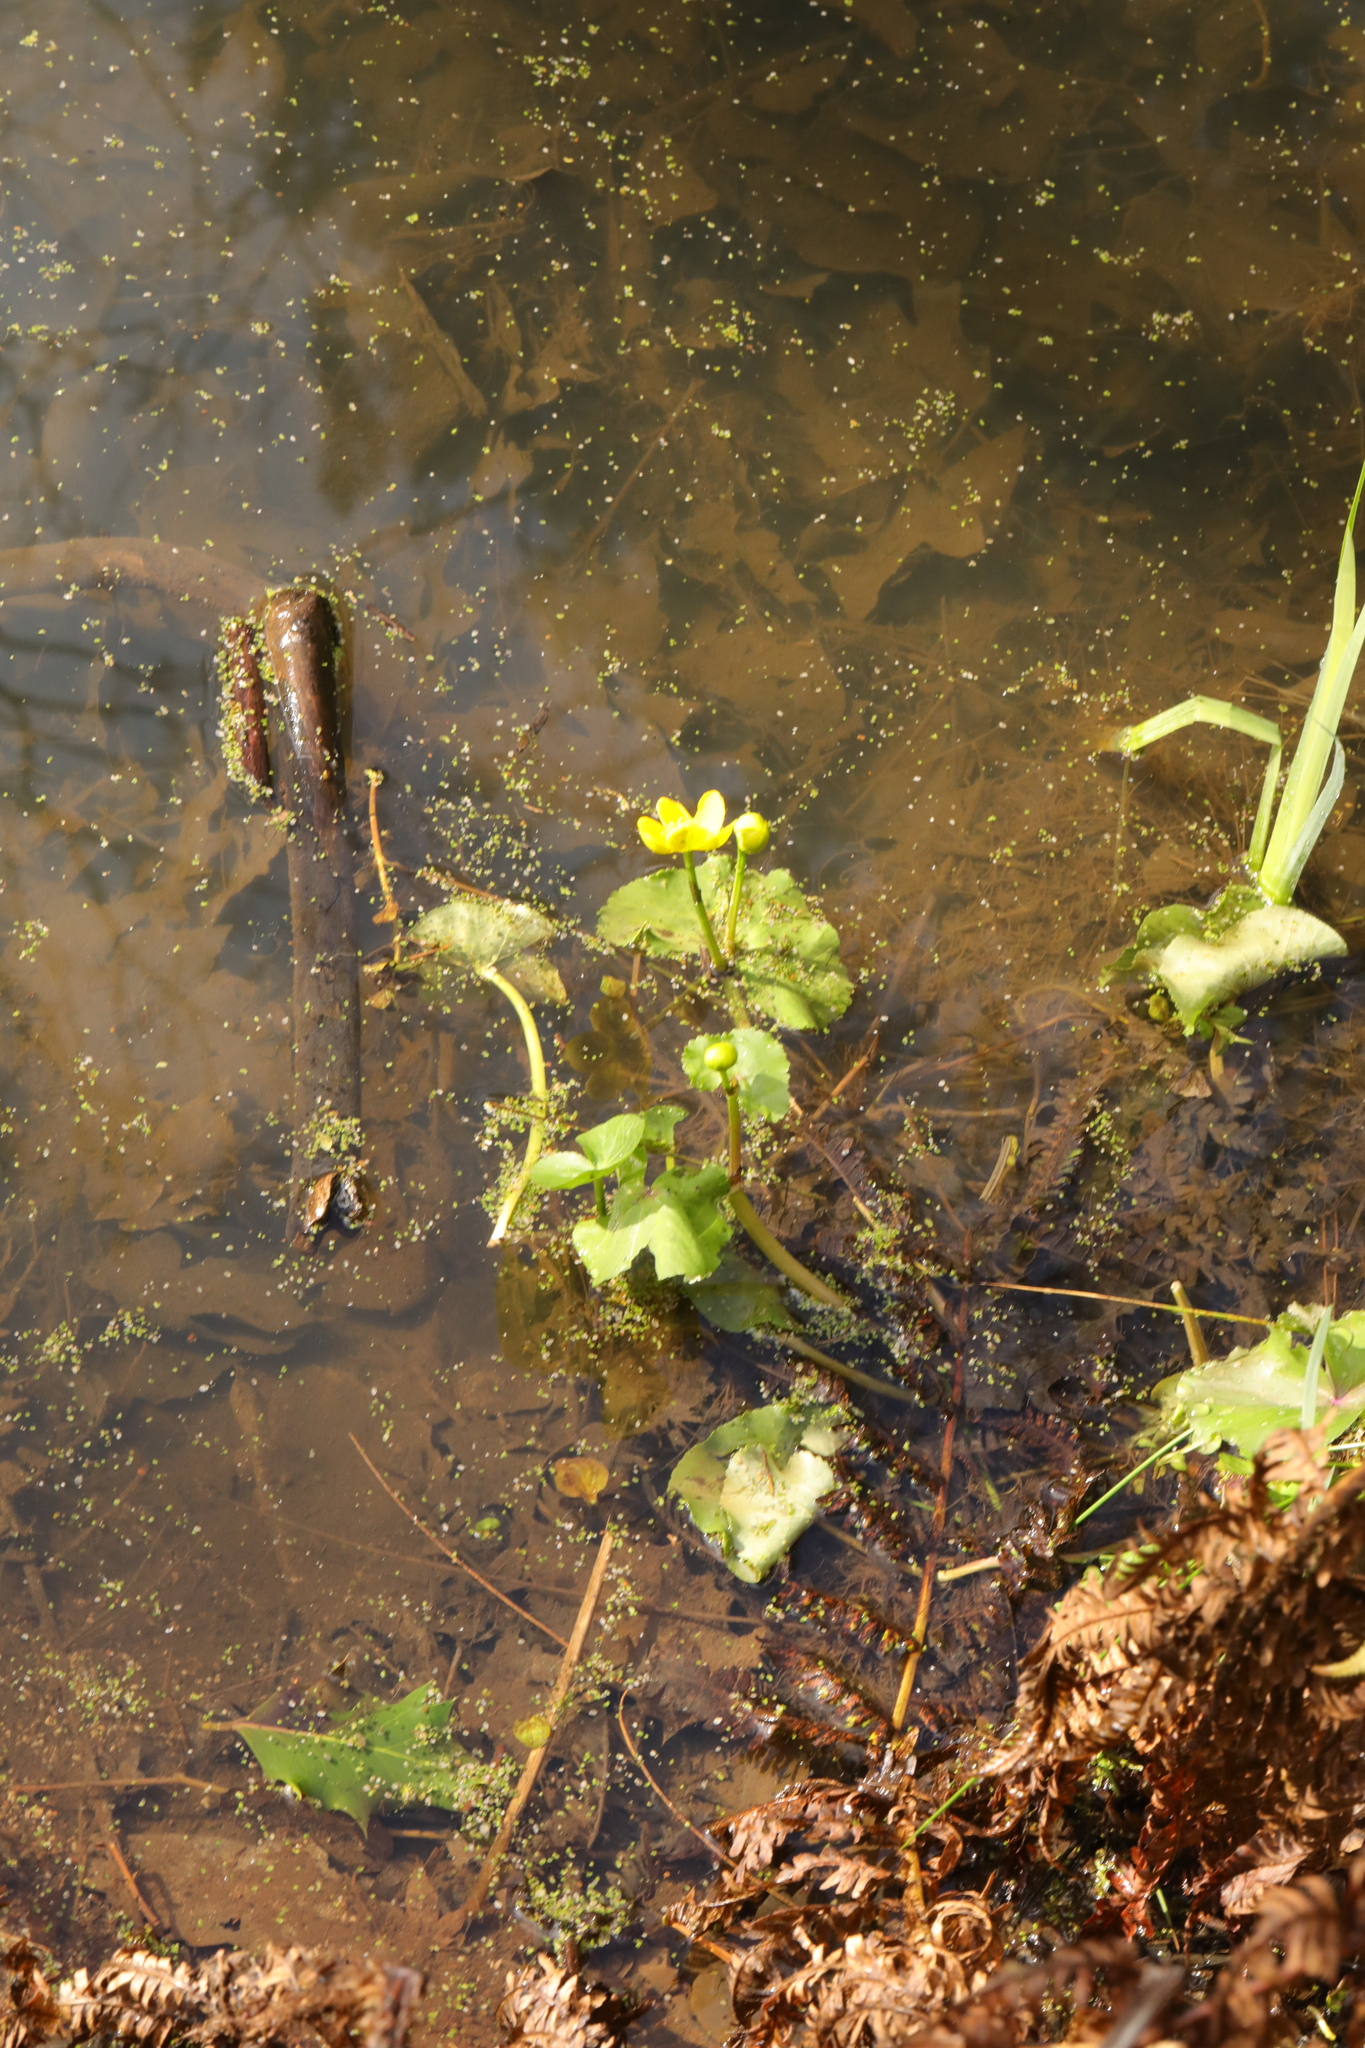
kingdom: Plantae
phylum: Tracheophyta
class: Magnoliopsida
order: Ranunculales
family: Ranunculaceae
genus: Caltha
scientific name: Caltha palustris
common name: Marsh marigold
